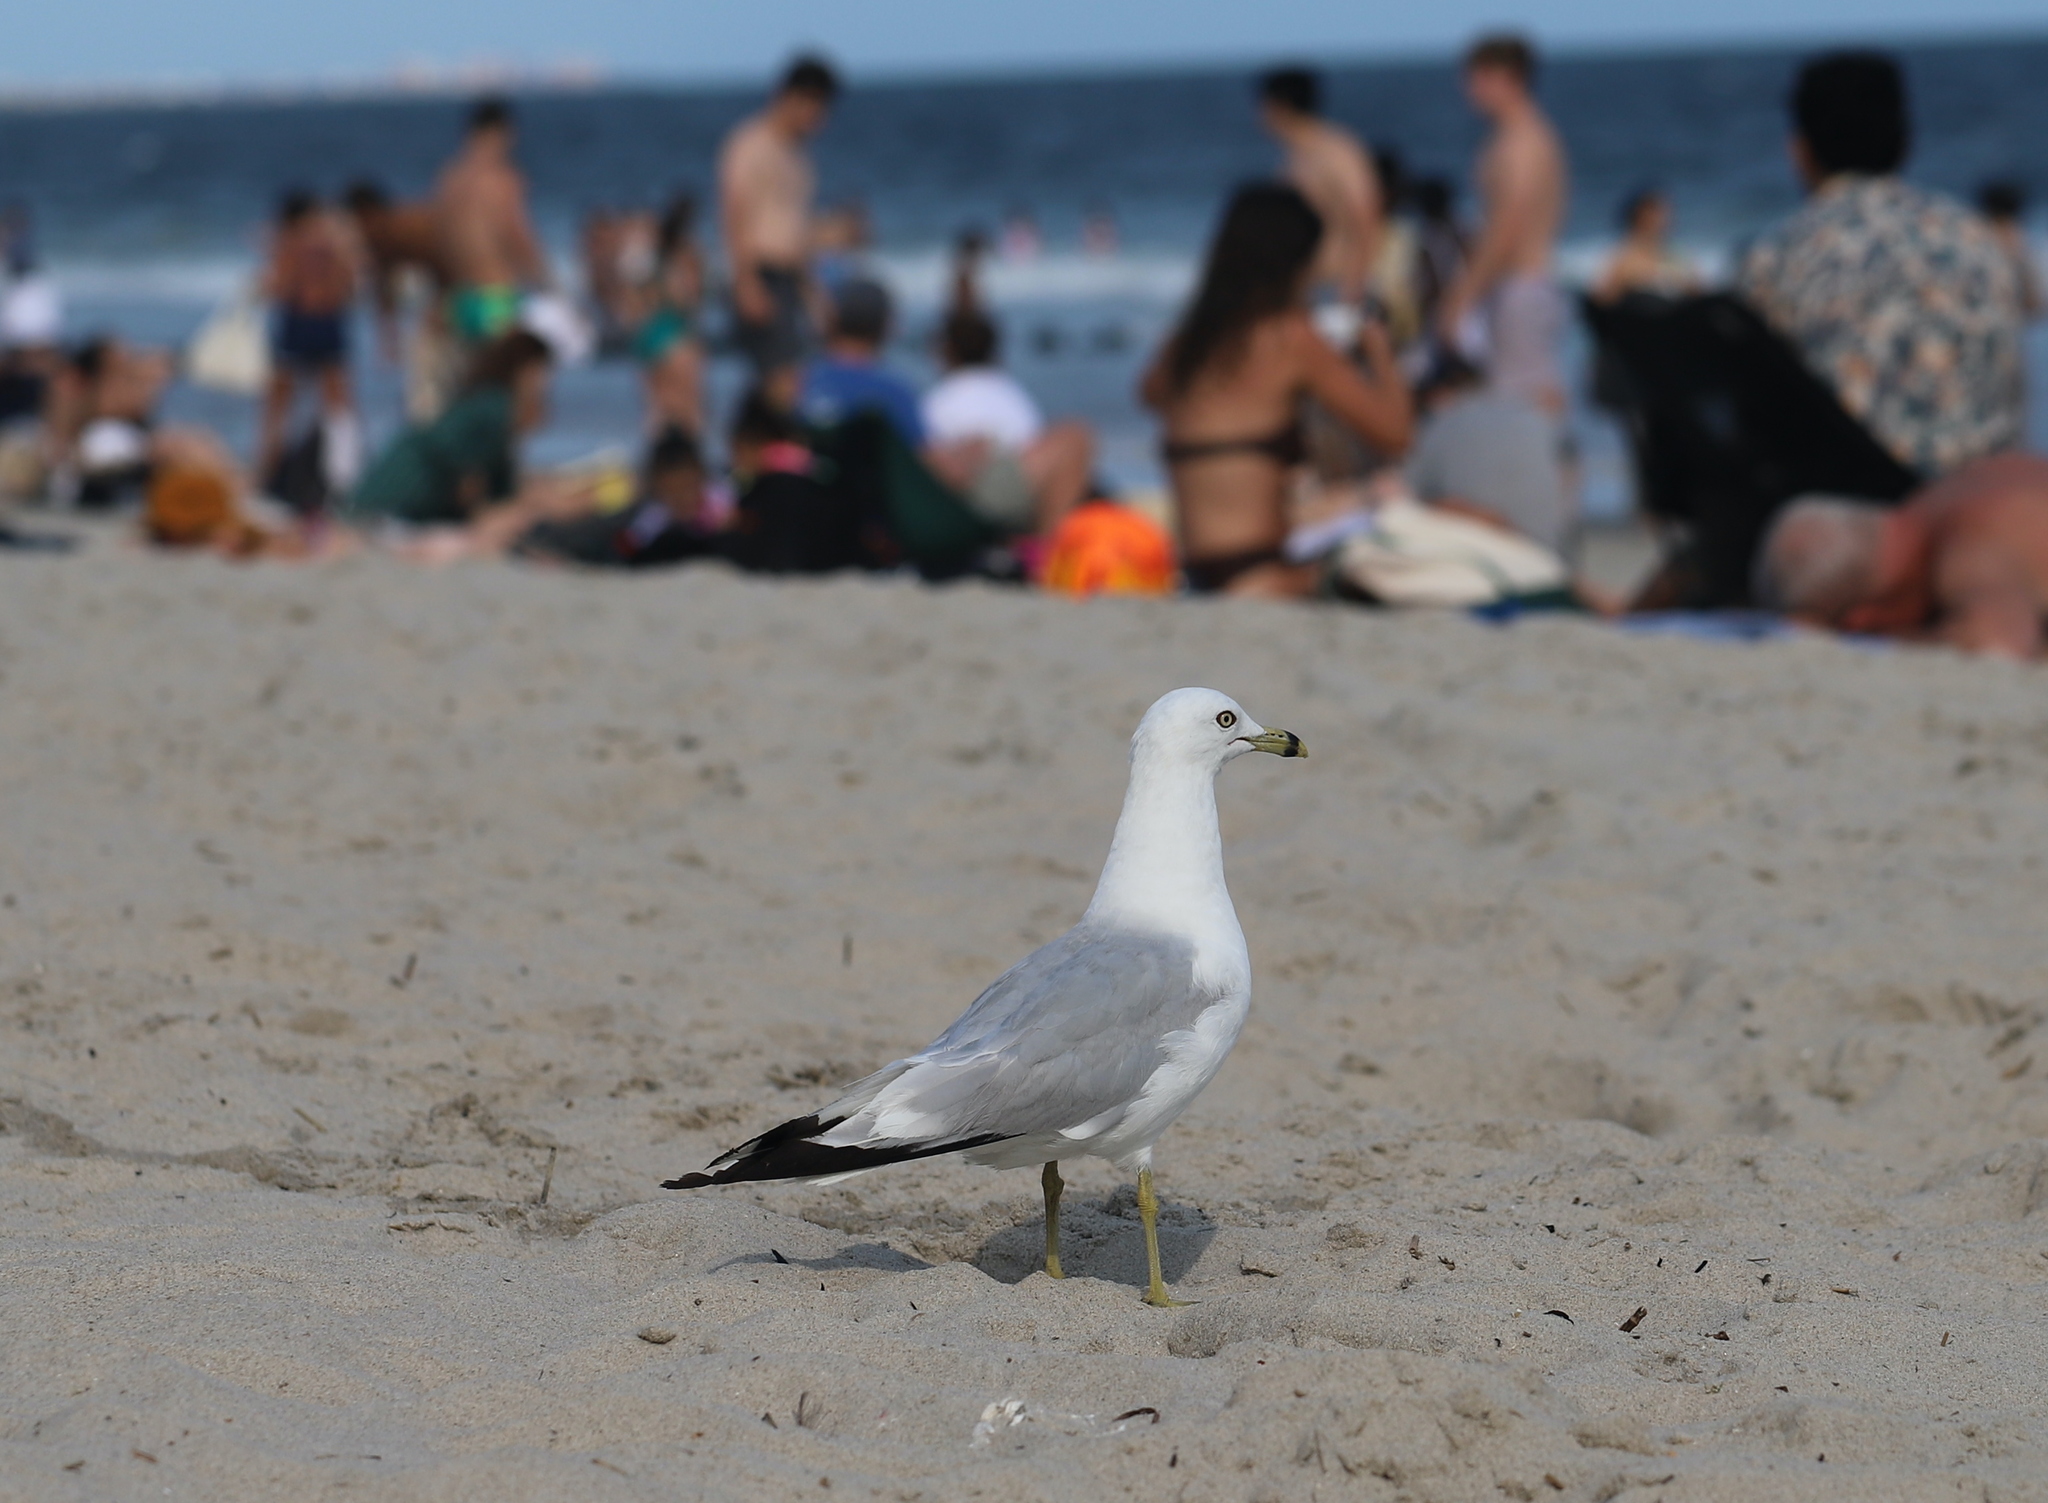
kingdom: Animalia
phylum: Chordata
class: Aves
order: Charadriiformes
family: Laridae
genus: Larus
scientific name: Larus delawarensis
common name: Ring-billed gull
